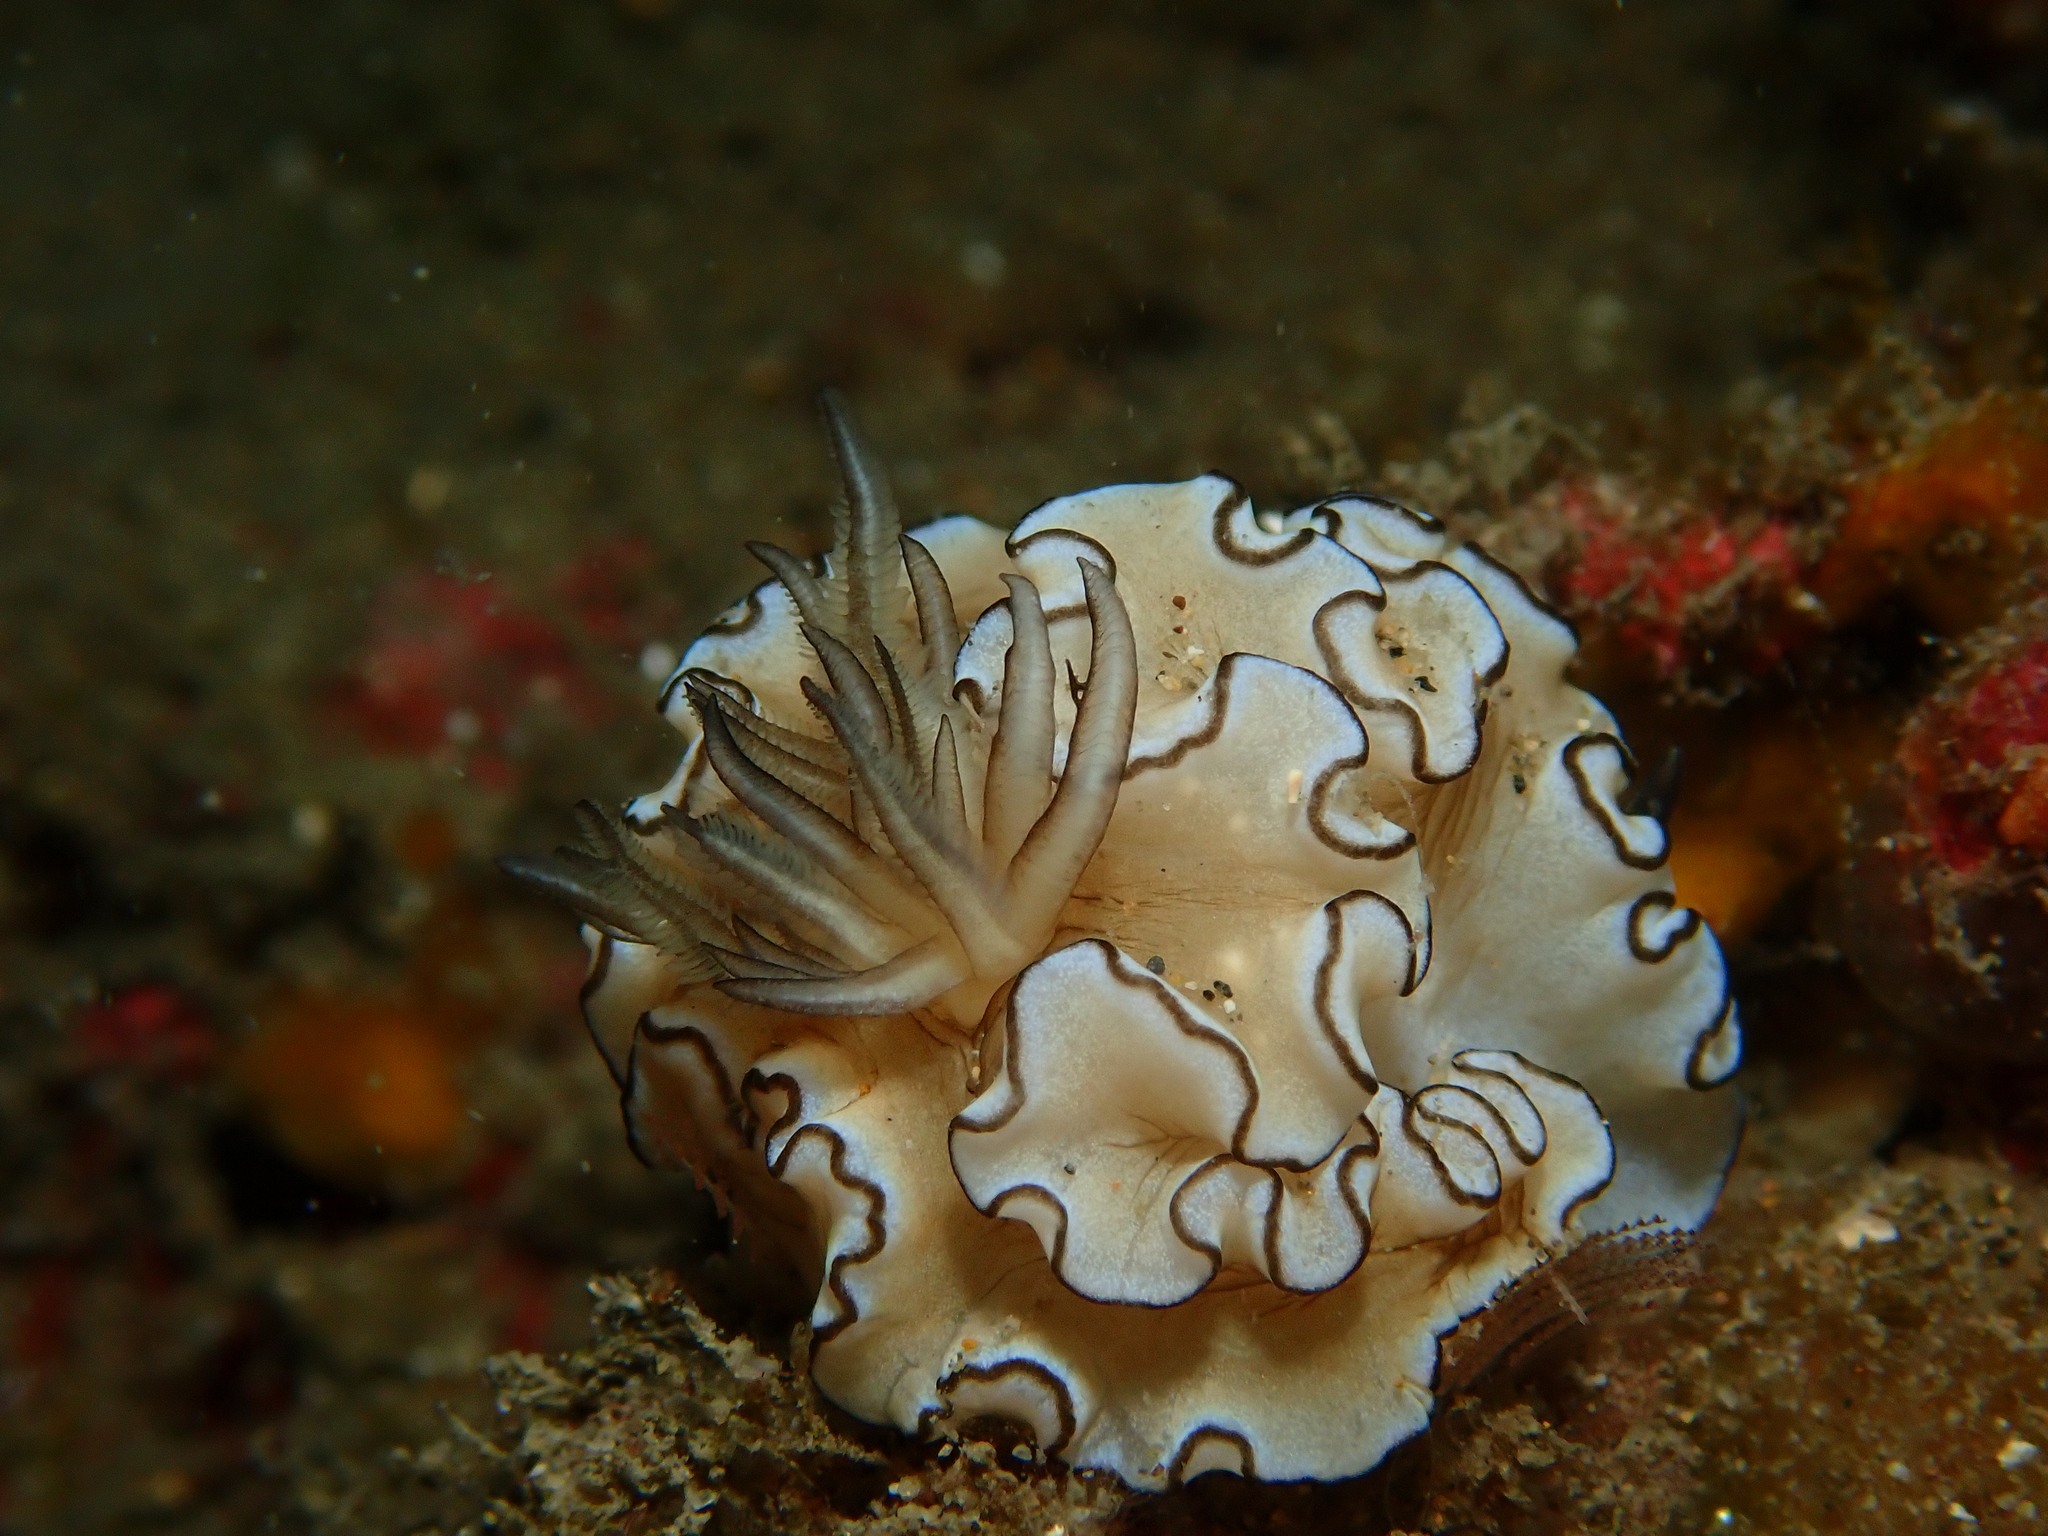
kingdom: Animalia
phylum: Mollusca
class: Gastropoda
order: Nudibranchia
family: Chromodorididae
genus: Doriprismatica
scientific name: Doriprismatica atromarginata
